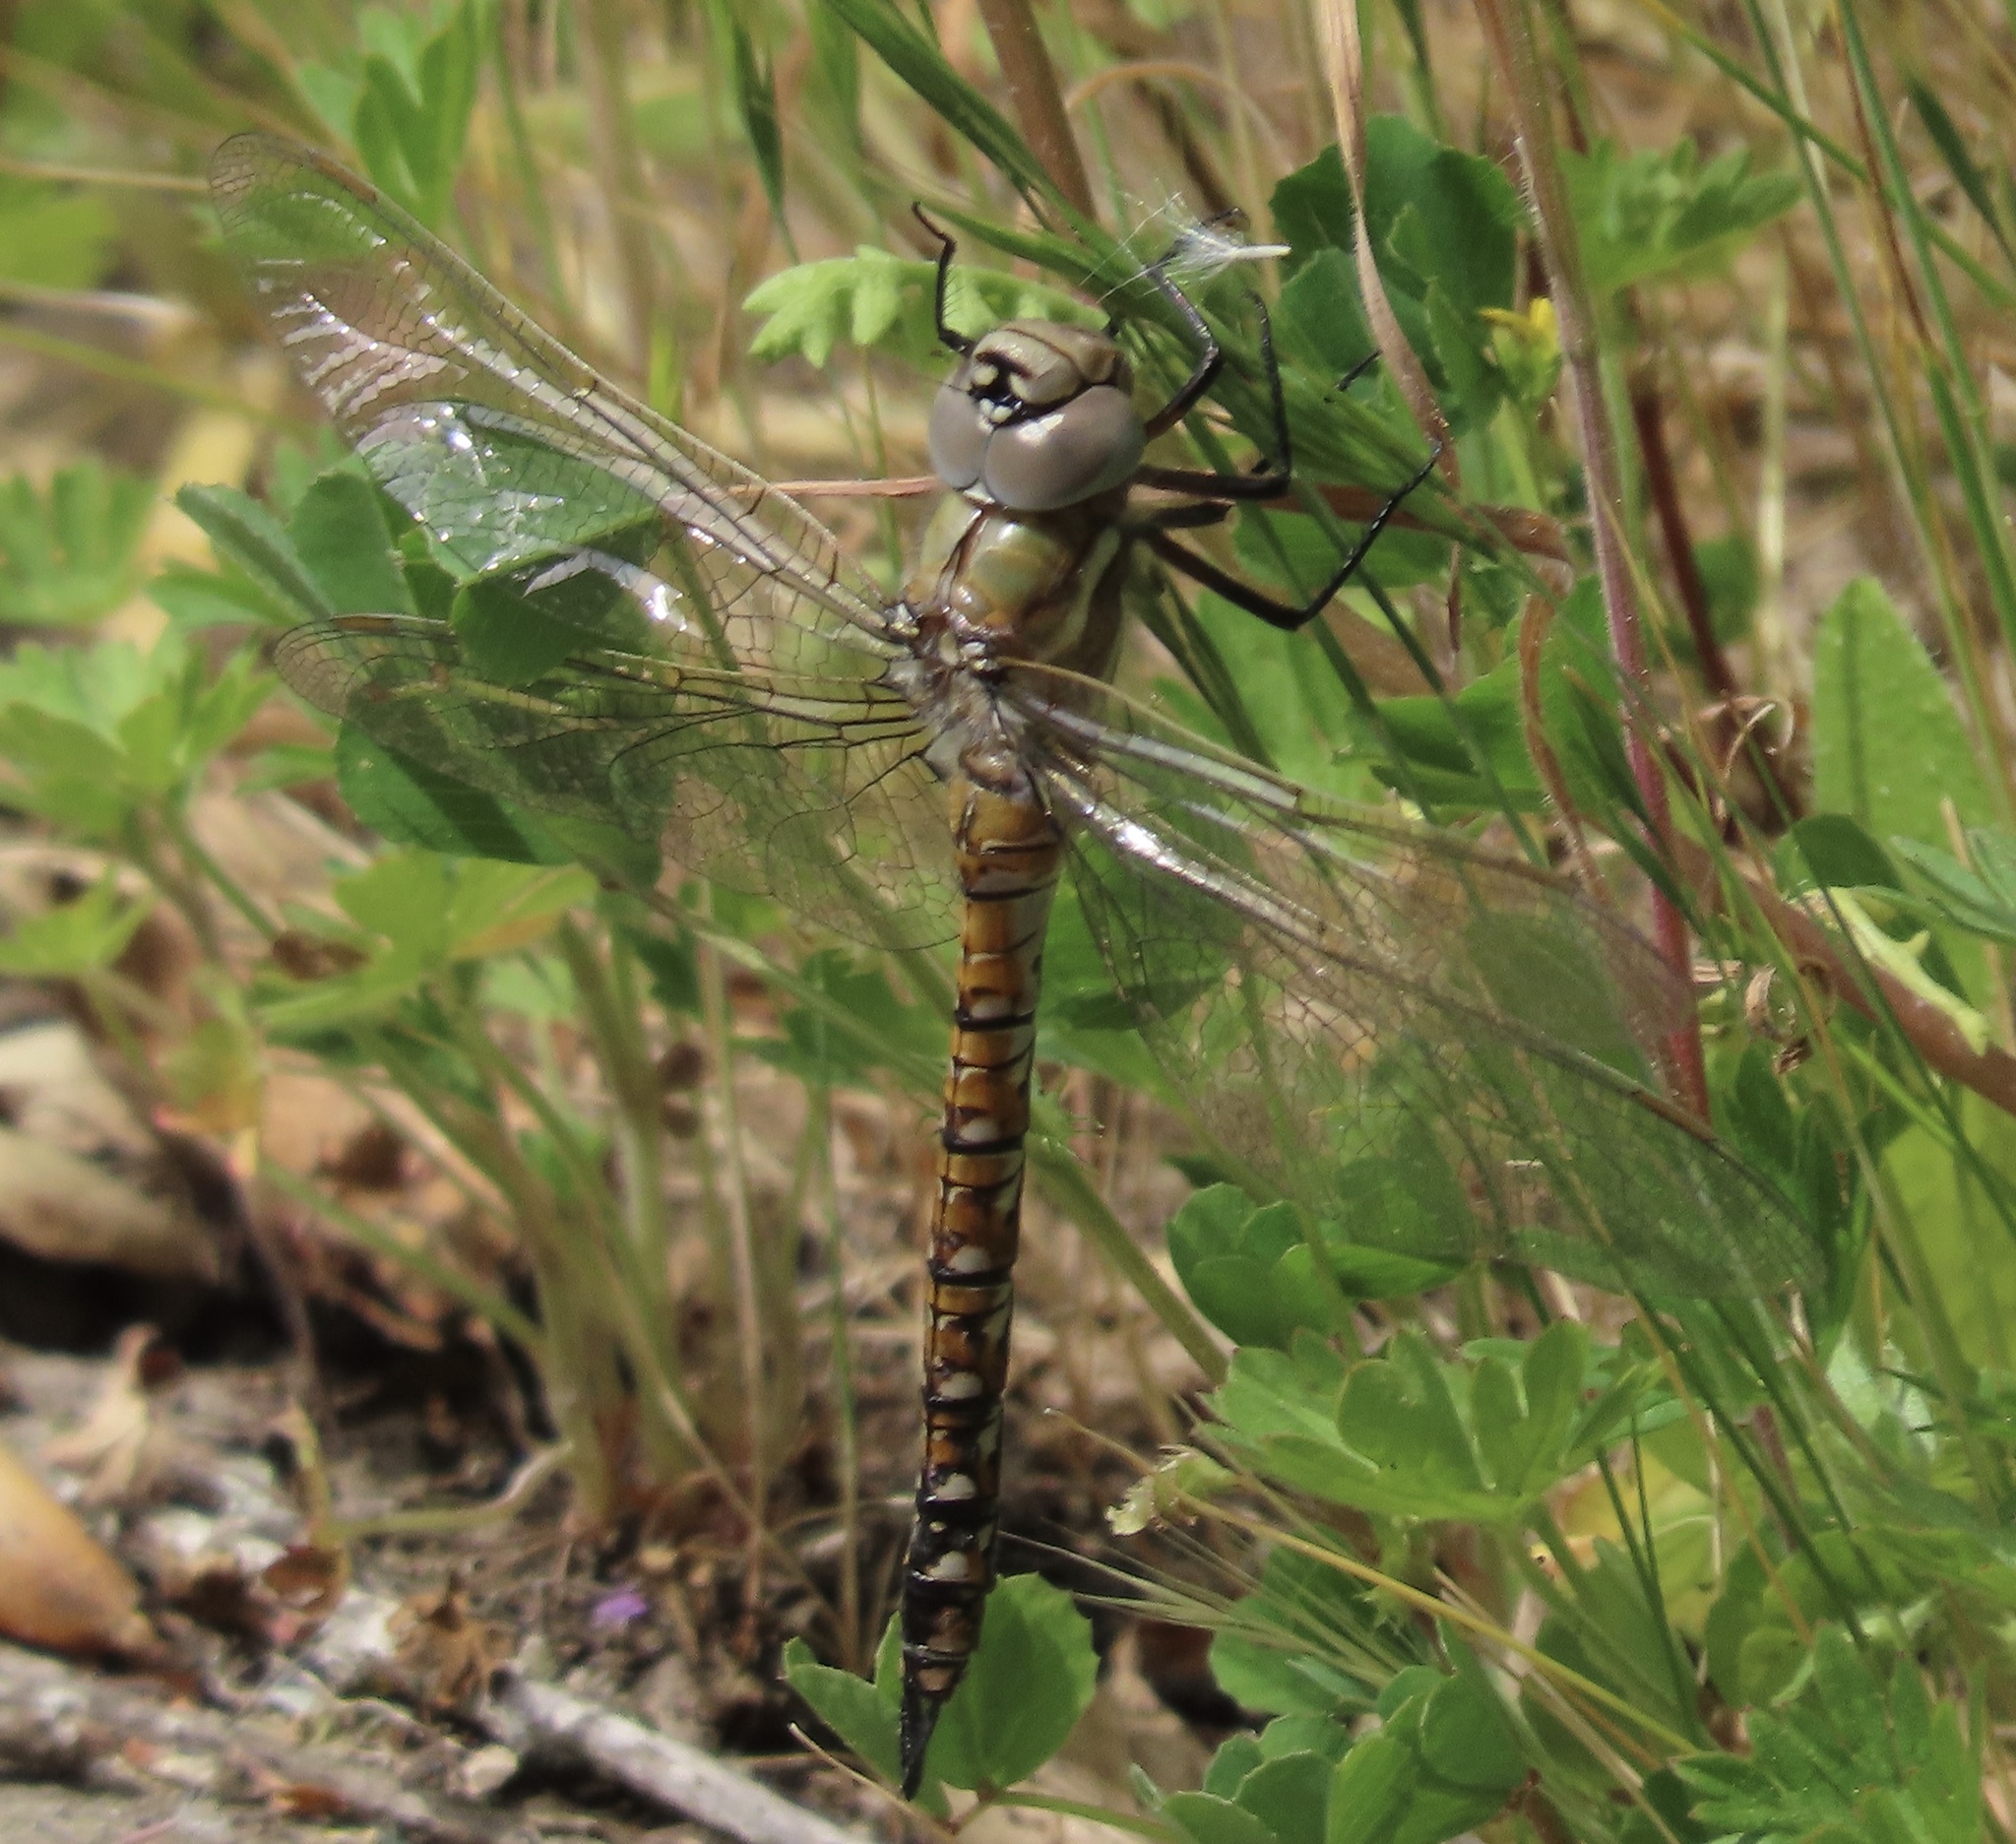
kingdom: Animalia
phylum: Arthropoda
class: Insecta
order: Odonata
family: Aeshnidae
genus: Rhionaeschna
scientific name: Rhionaeschna californica
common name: California darner
